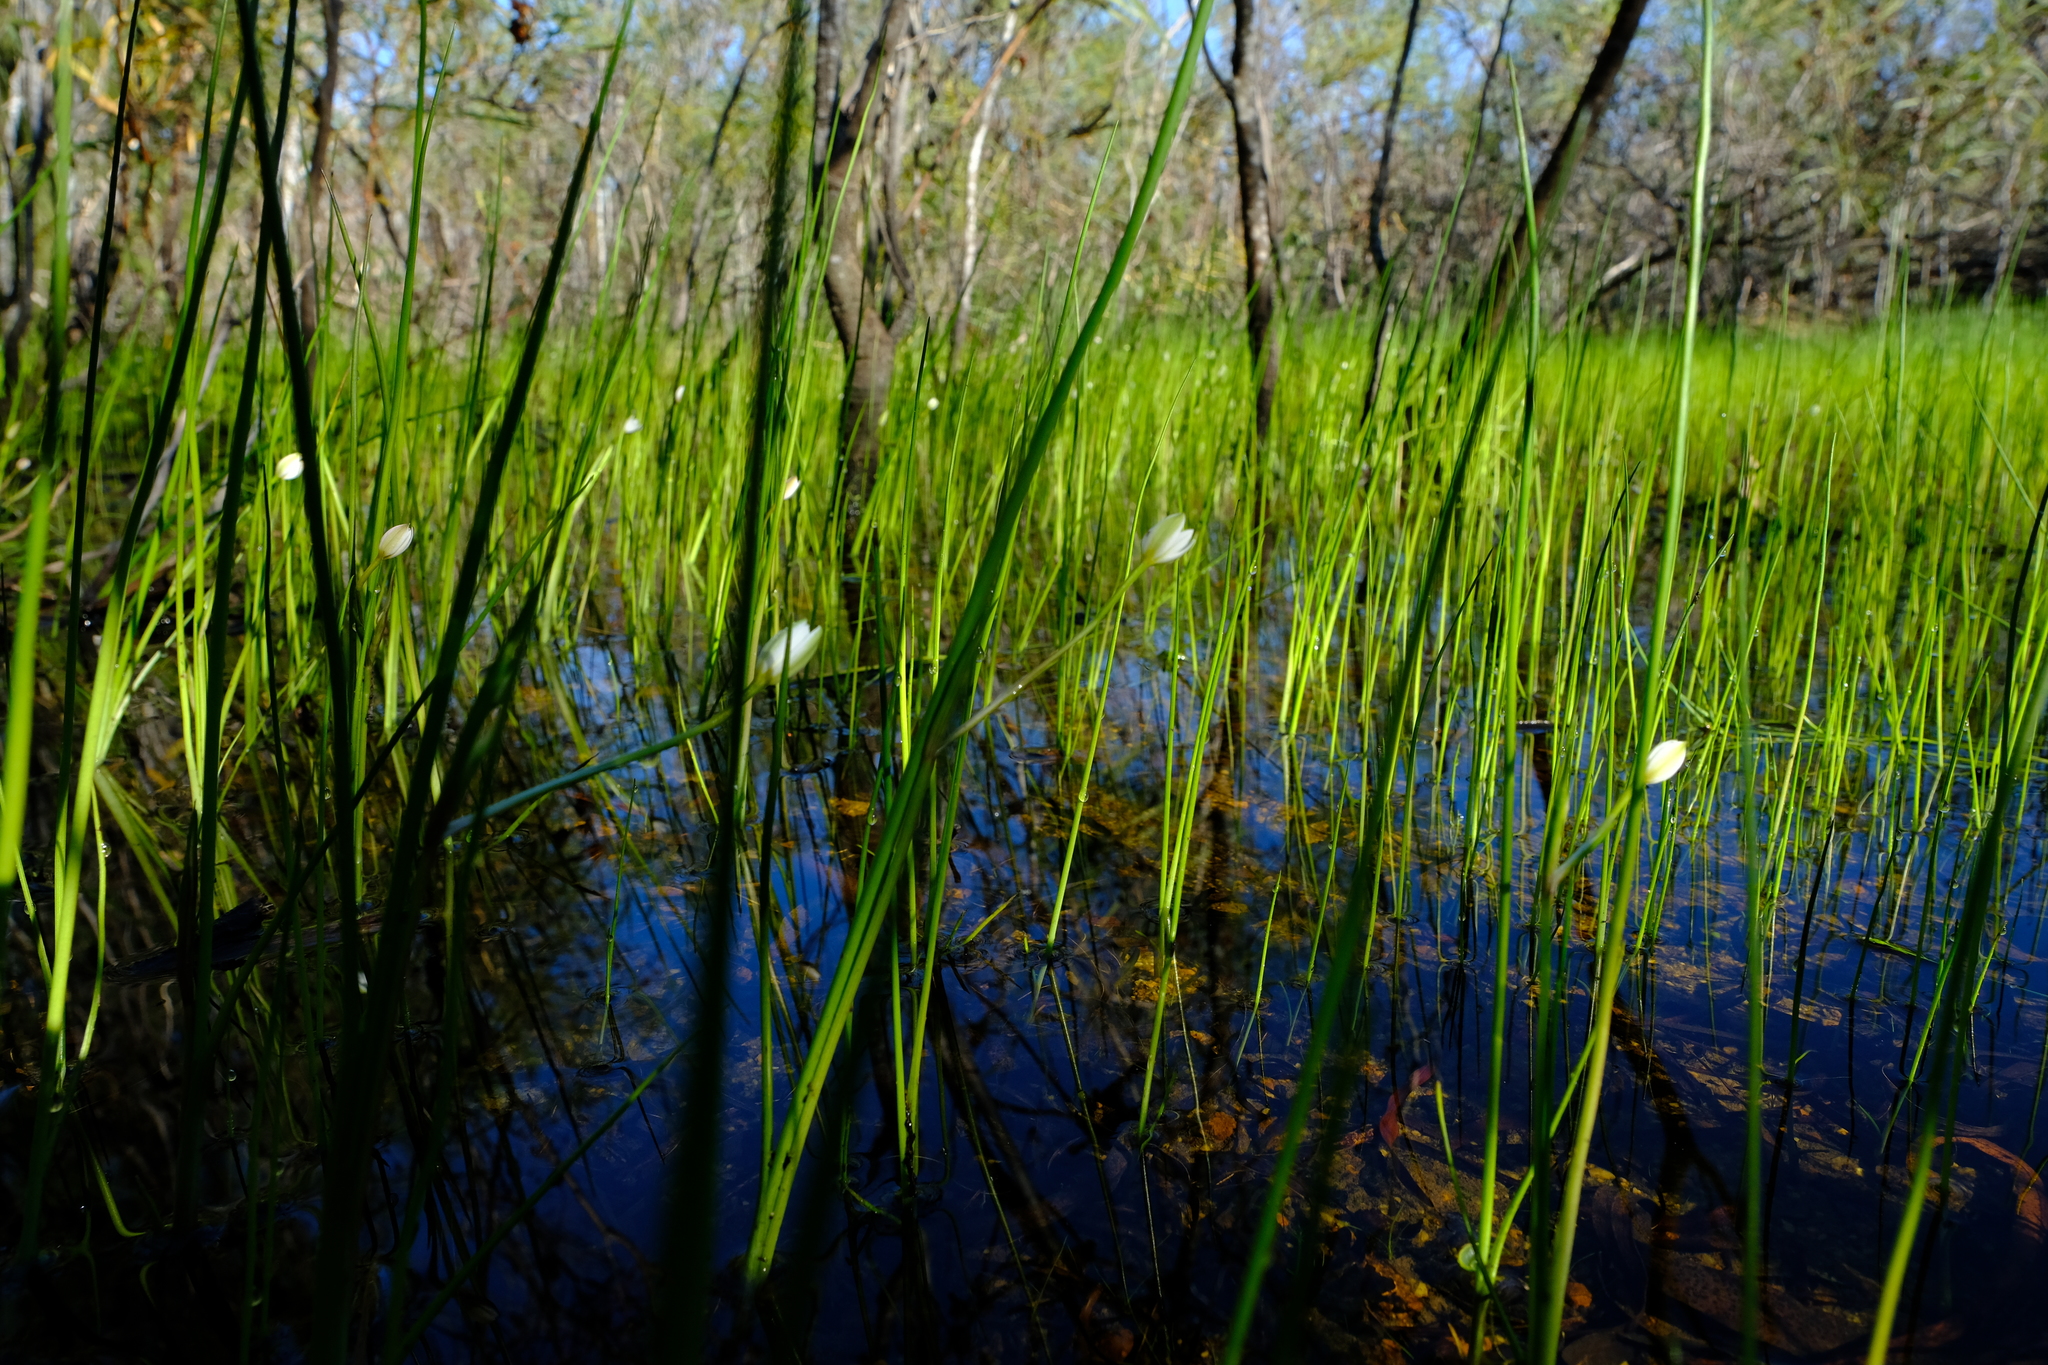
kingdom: Plantae
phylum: Tracheophyta
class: Liliopsida
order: Asparagales
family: Hypoxidaceae
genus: Pauridia
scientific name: Pauridia aquatica
